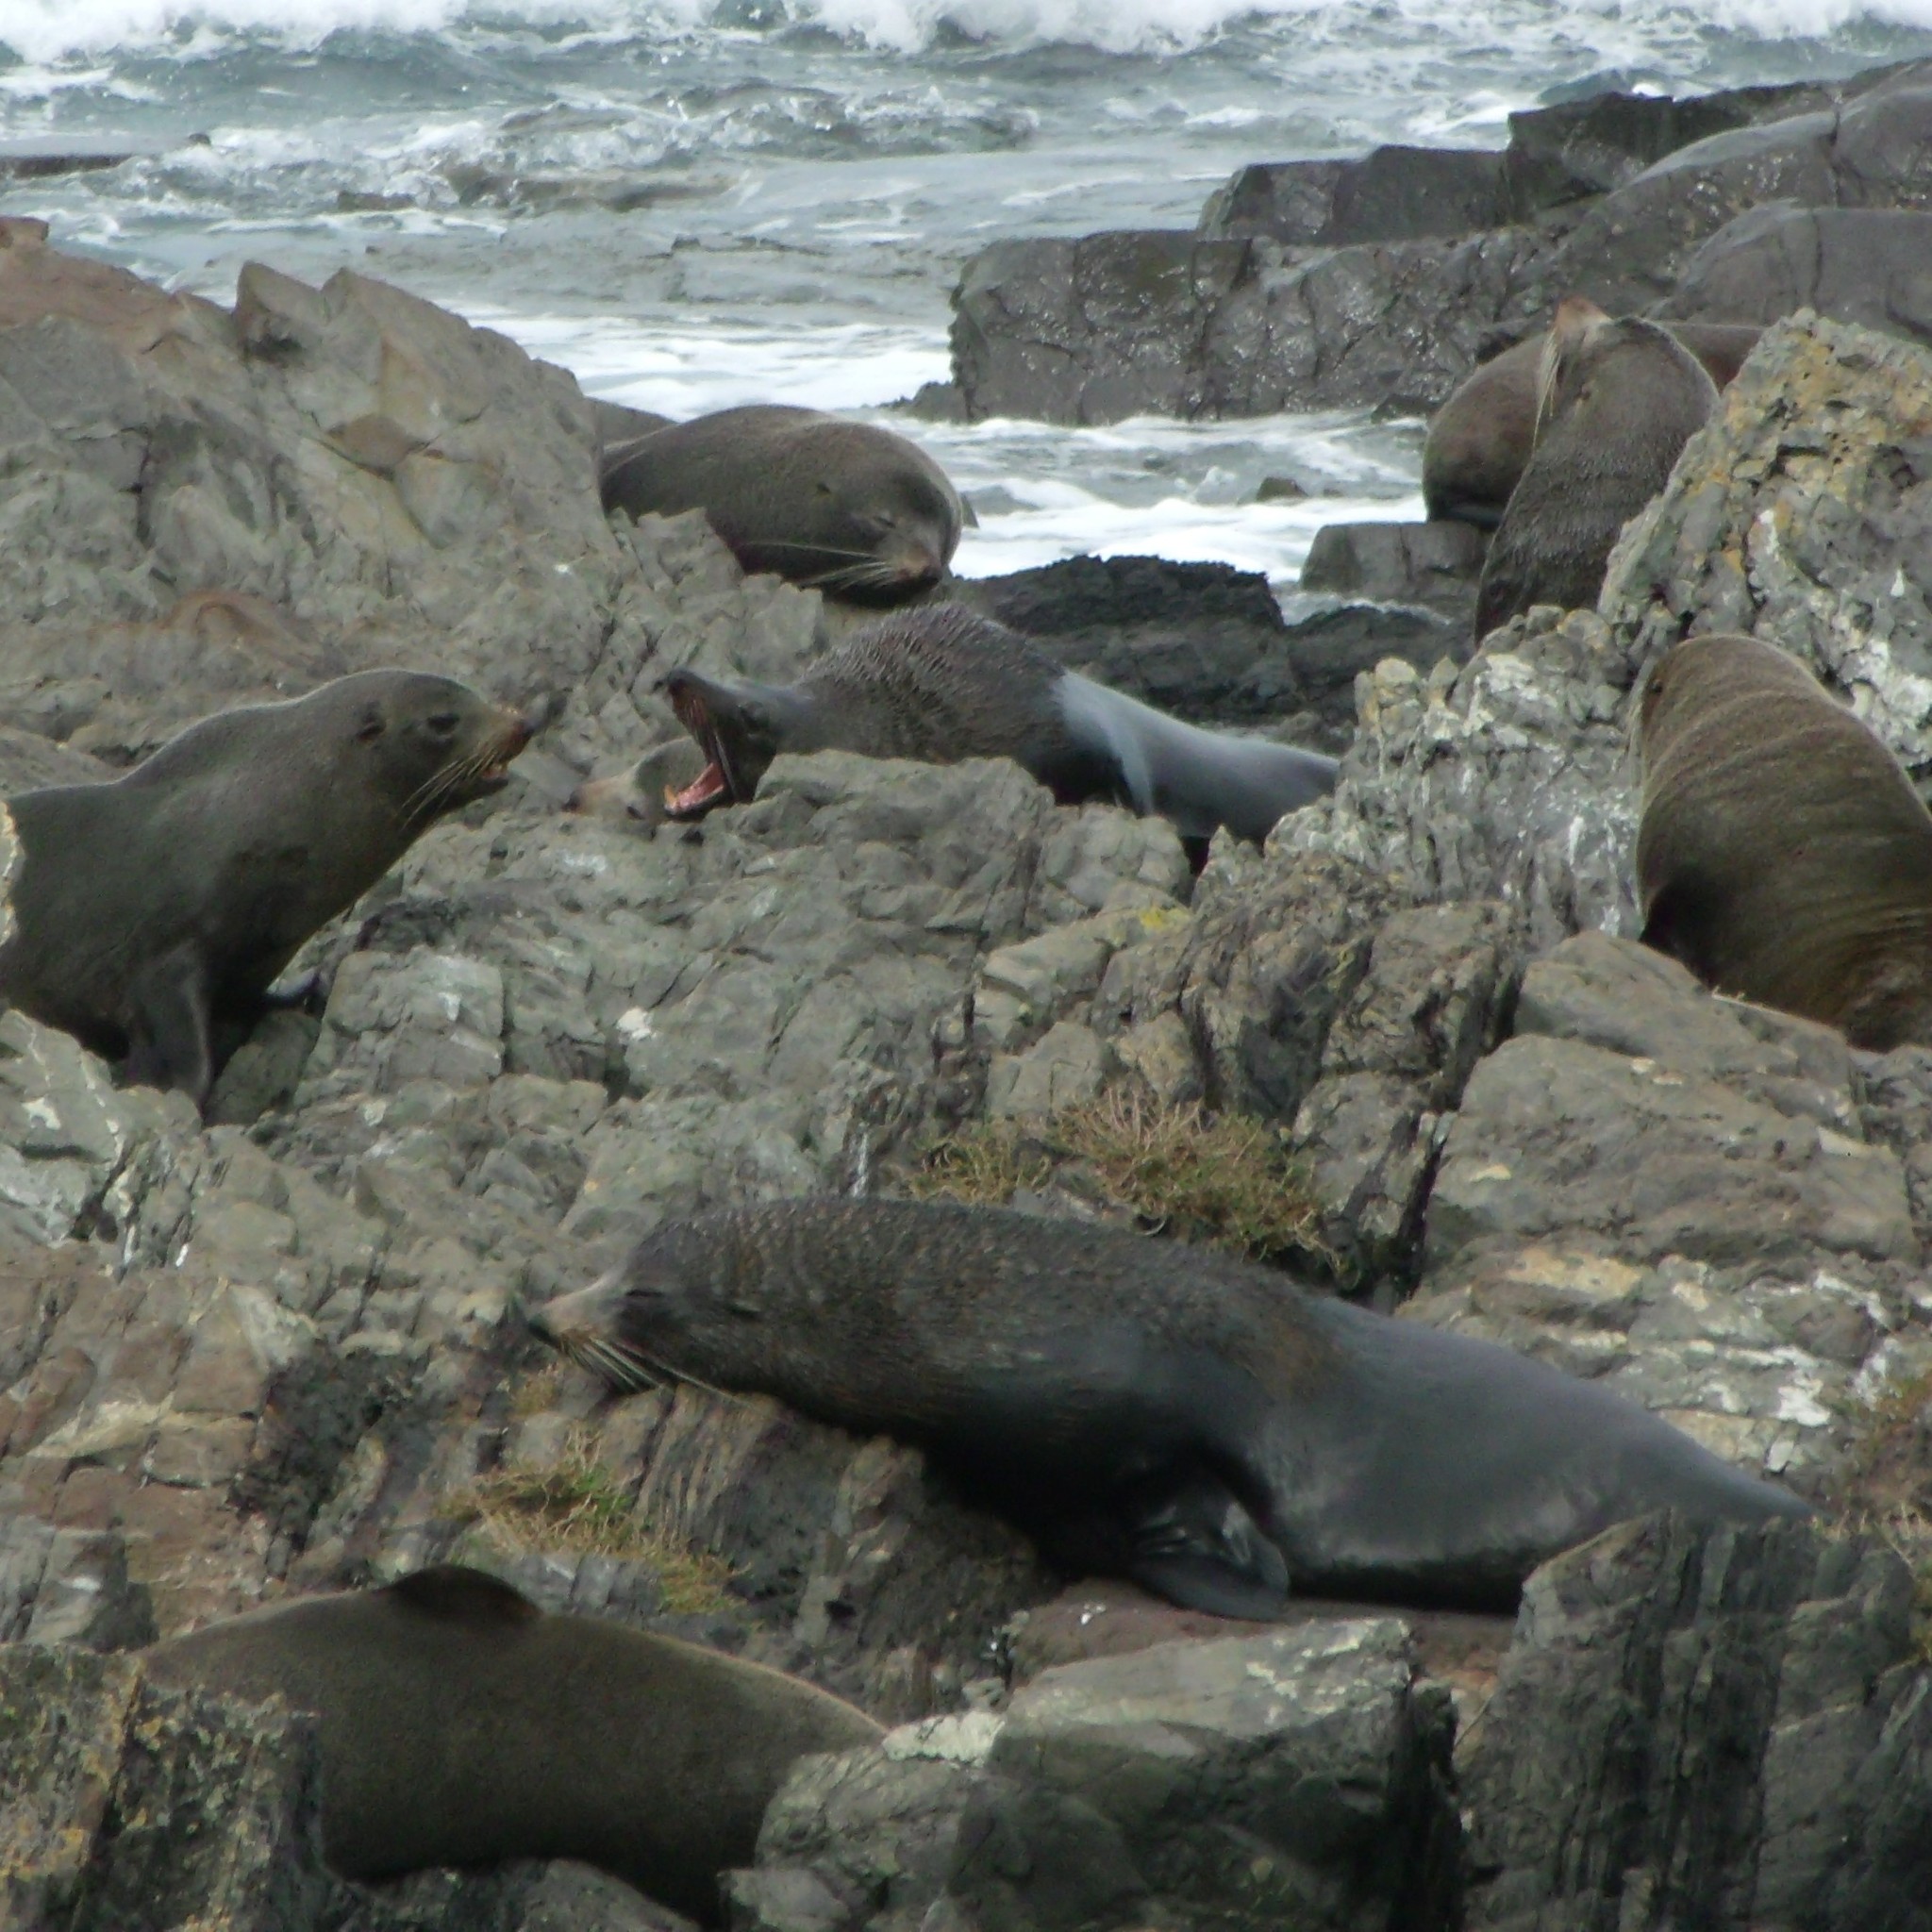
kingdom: Animalia
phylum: Chordata
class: Mammalia
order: Carnivora
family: Otariidae
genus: Arctocephalus
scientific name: Arctocephalus forsteri
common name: New zealand fur seal
